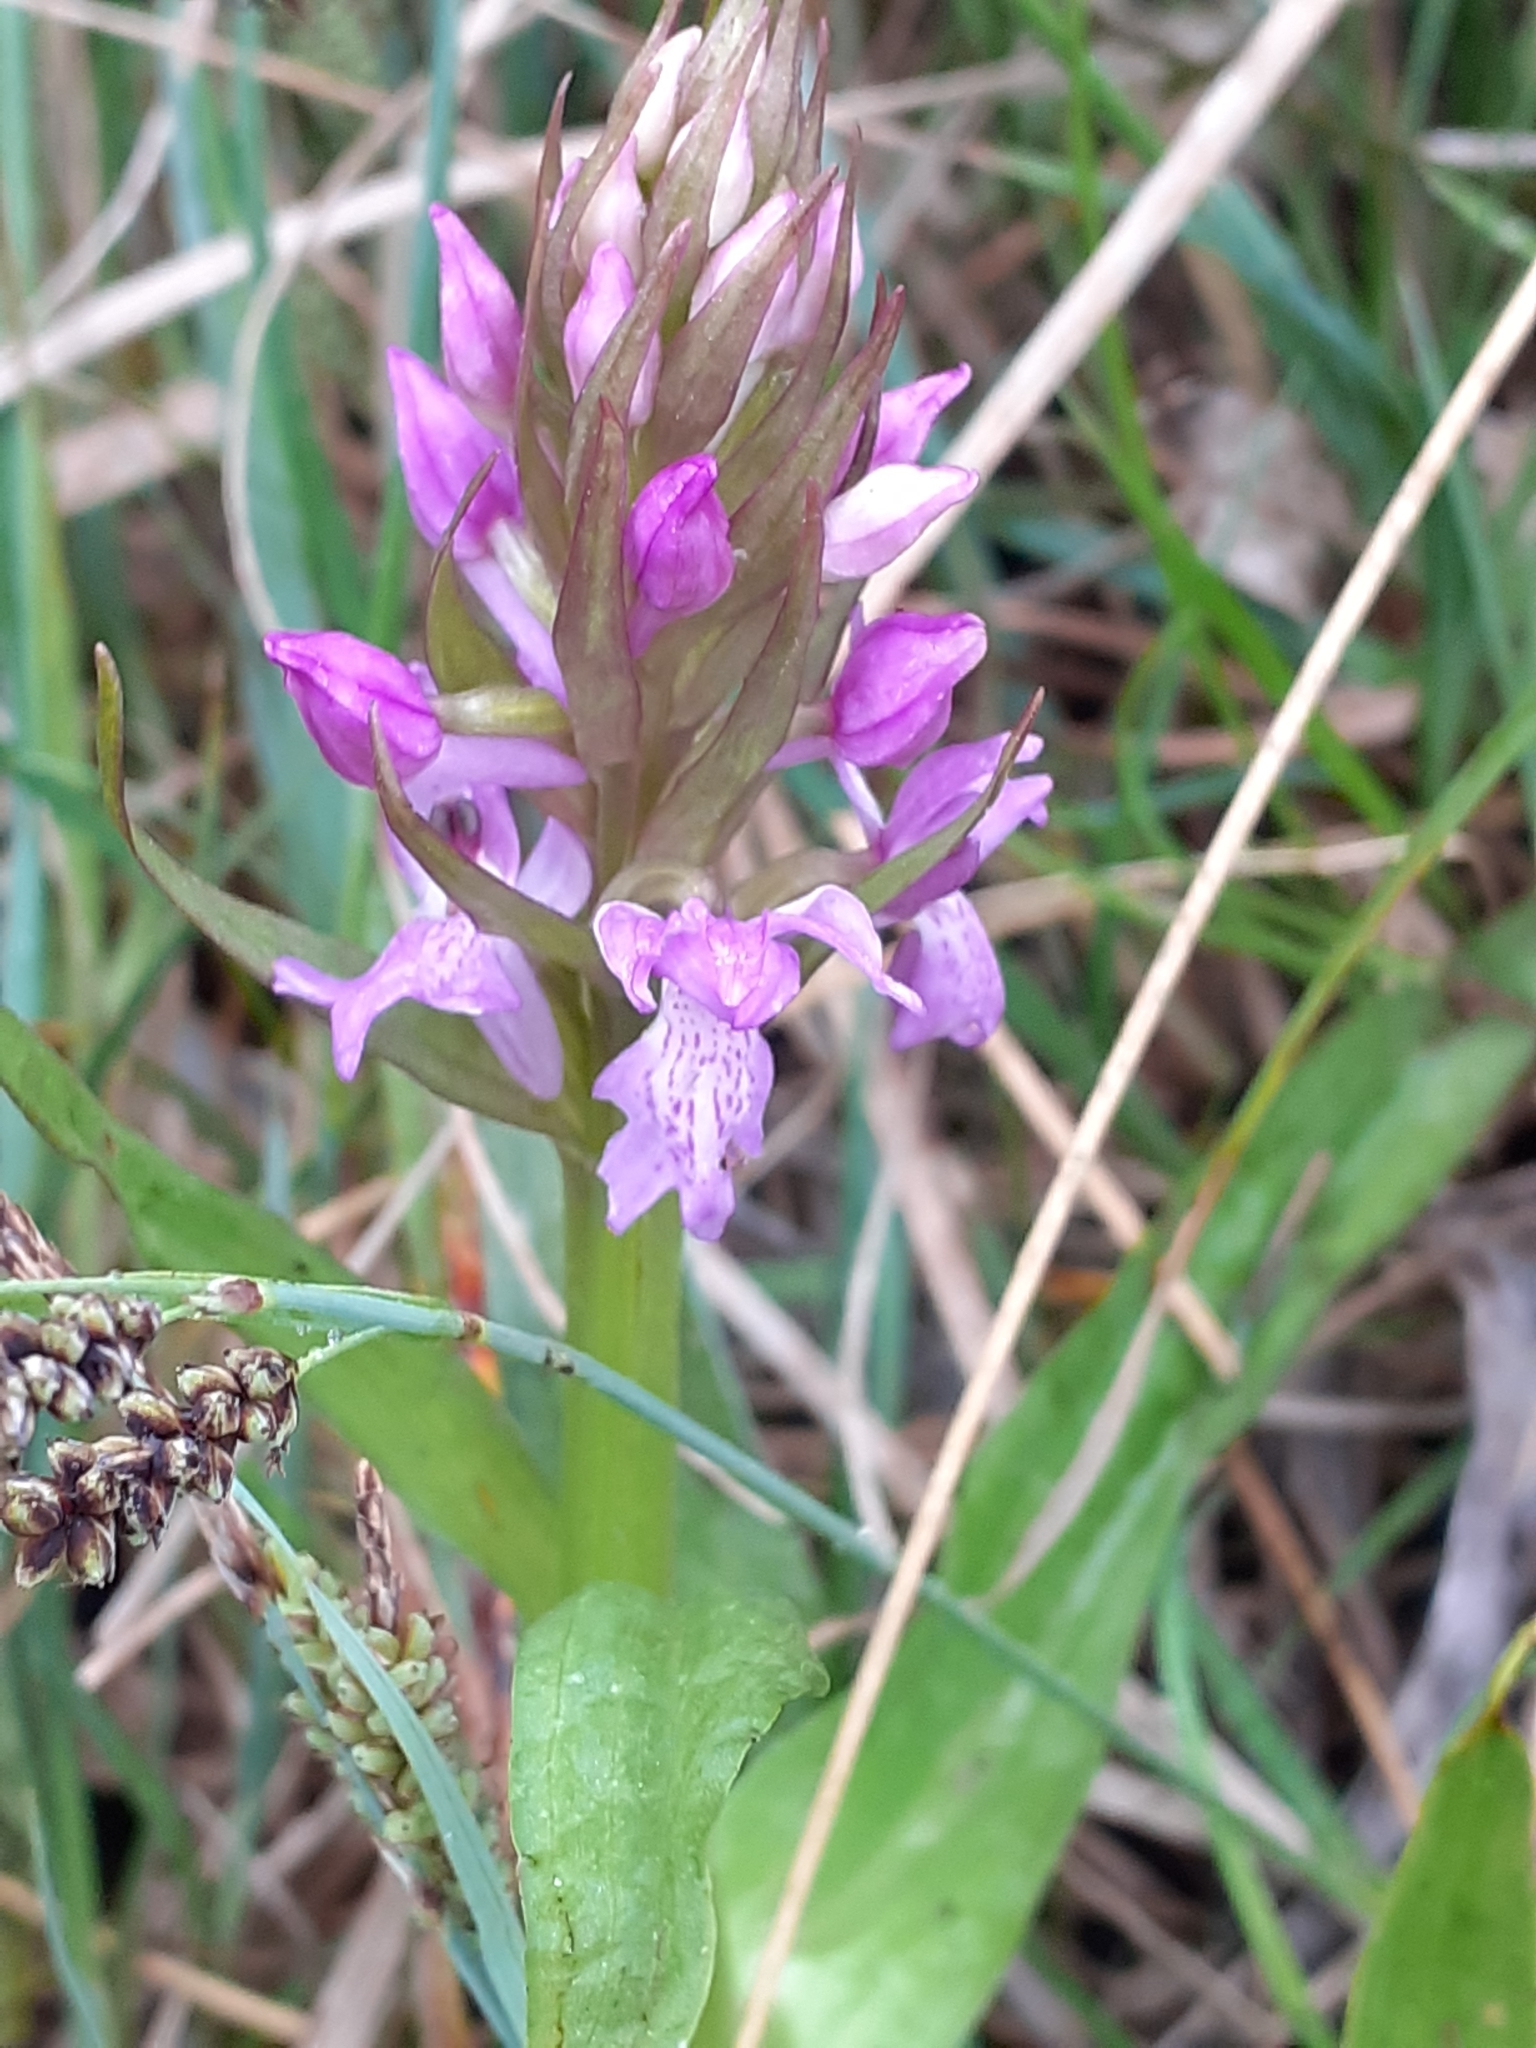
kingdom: Plantae
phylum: Tracheophyta
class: Liliopsida
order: Asparagales
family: Orchidaceae
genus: Dactylorhiza
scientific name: Dactylorhiza majalis
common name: Marsh orchid
